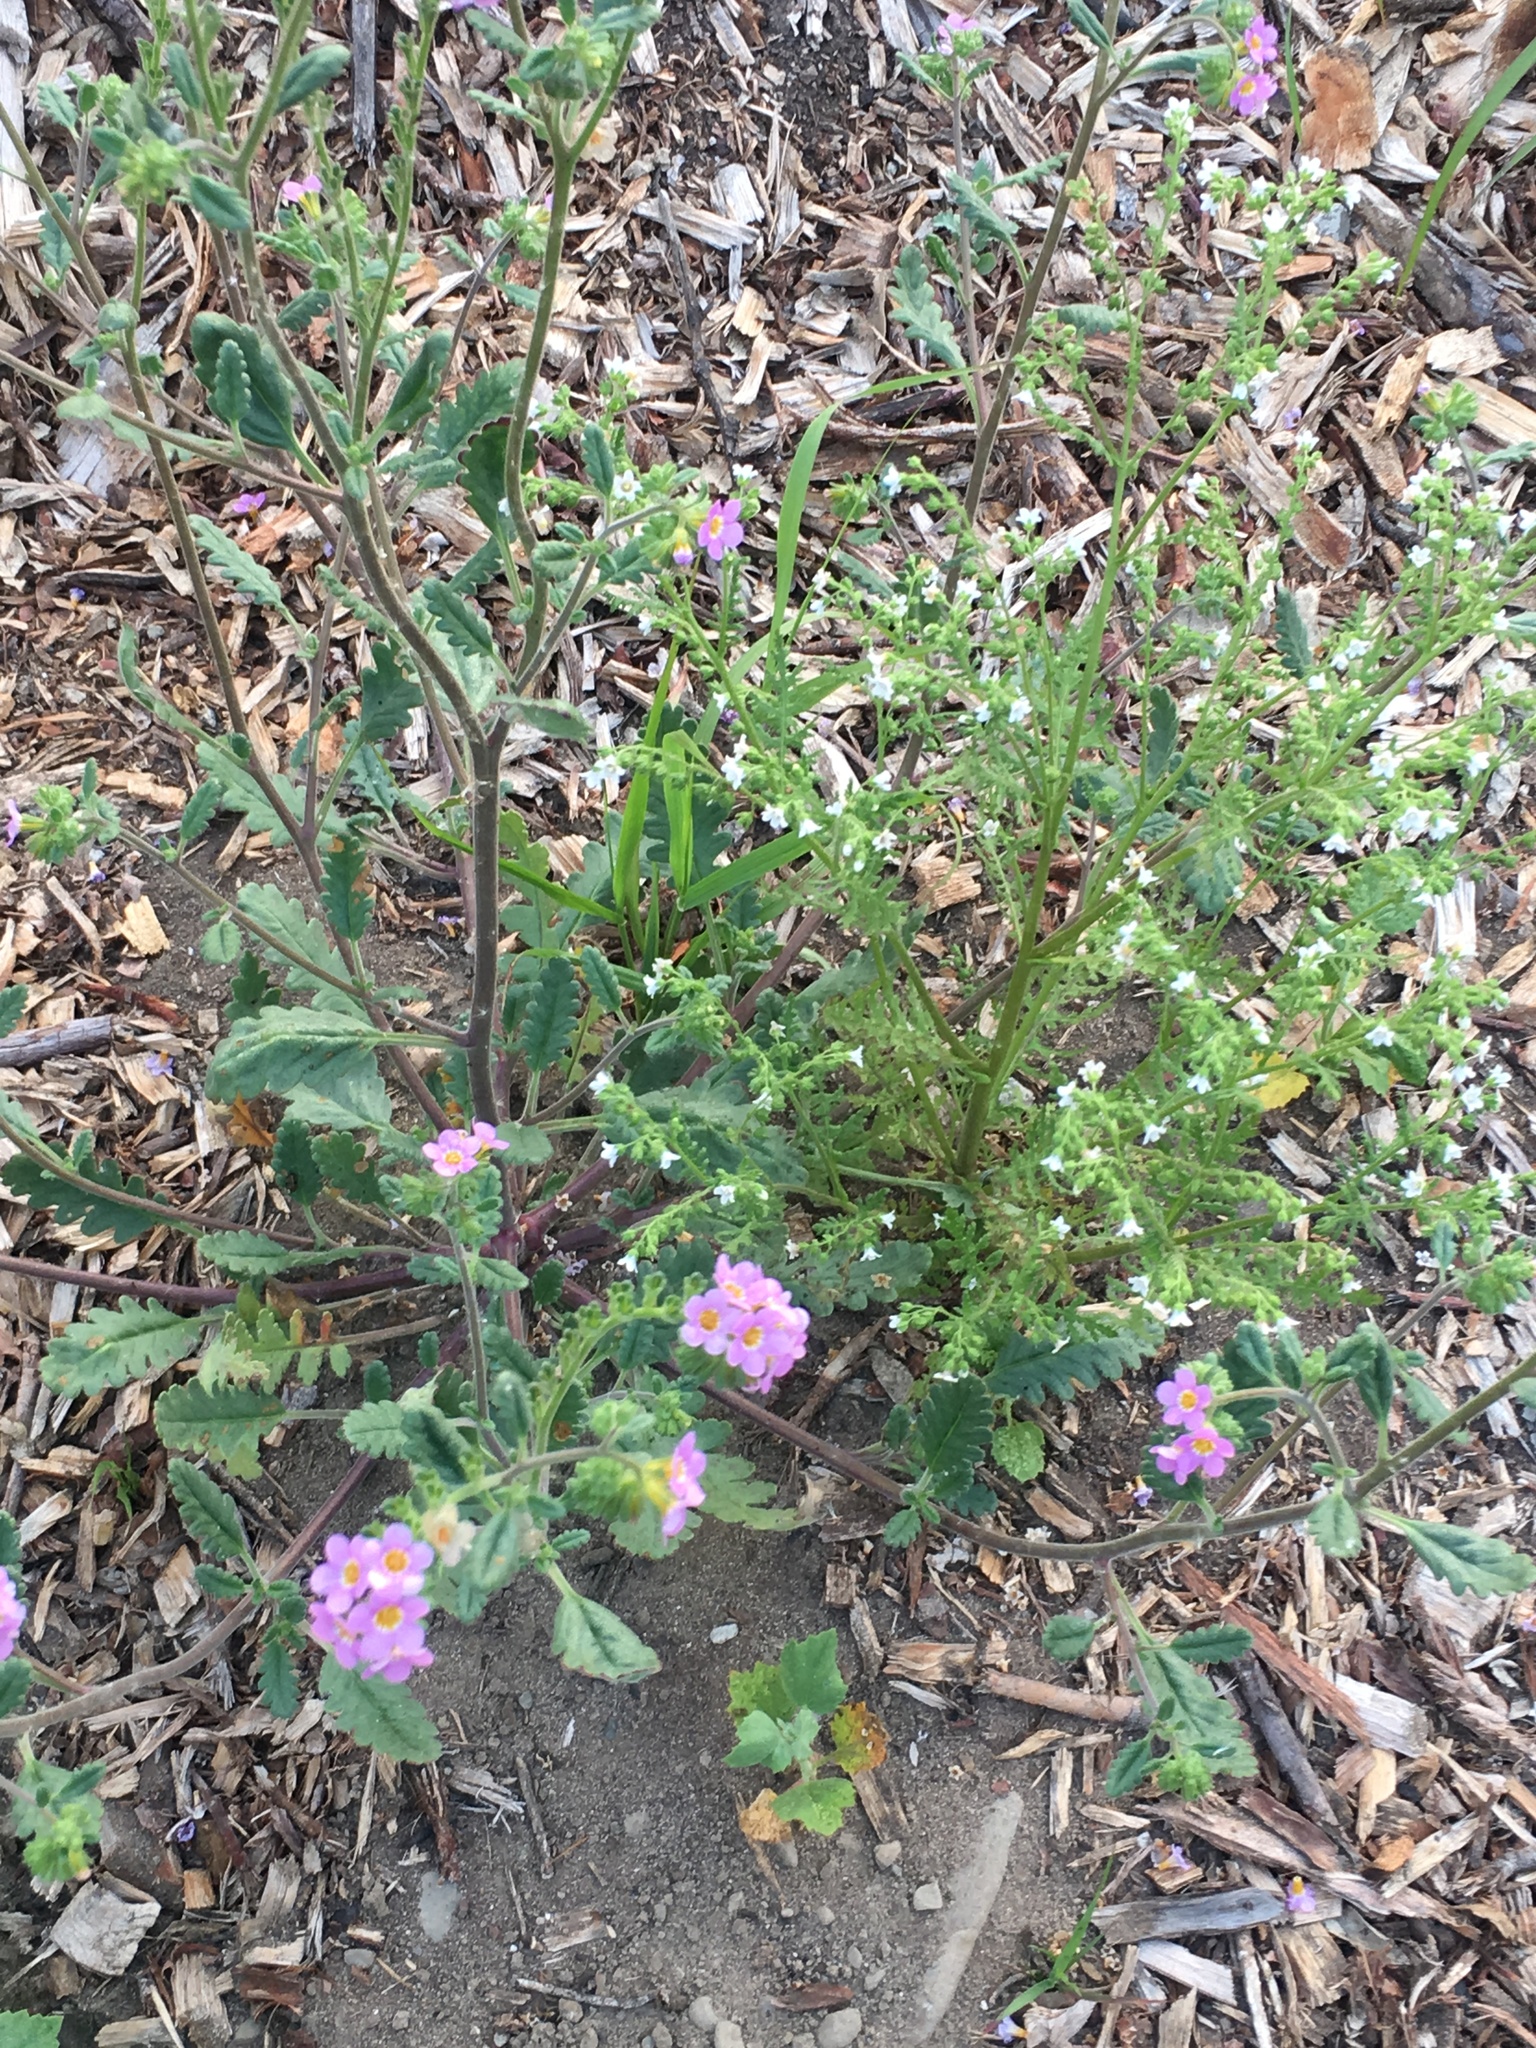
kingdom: Plantae
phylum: Tracheophyta
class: Magnoliopsida
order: Boraginales
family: Hydrophyllaceae
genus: Eucrypta
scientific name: Eucrypta chrysanthemifolia
